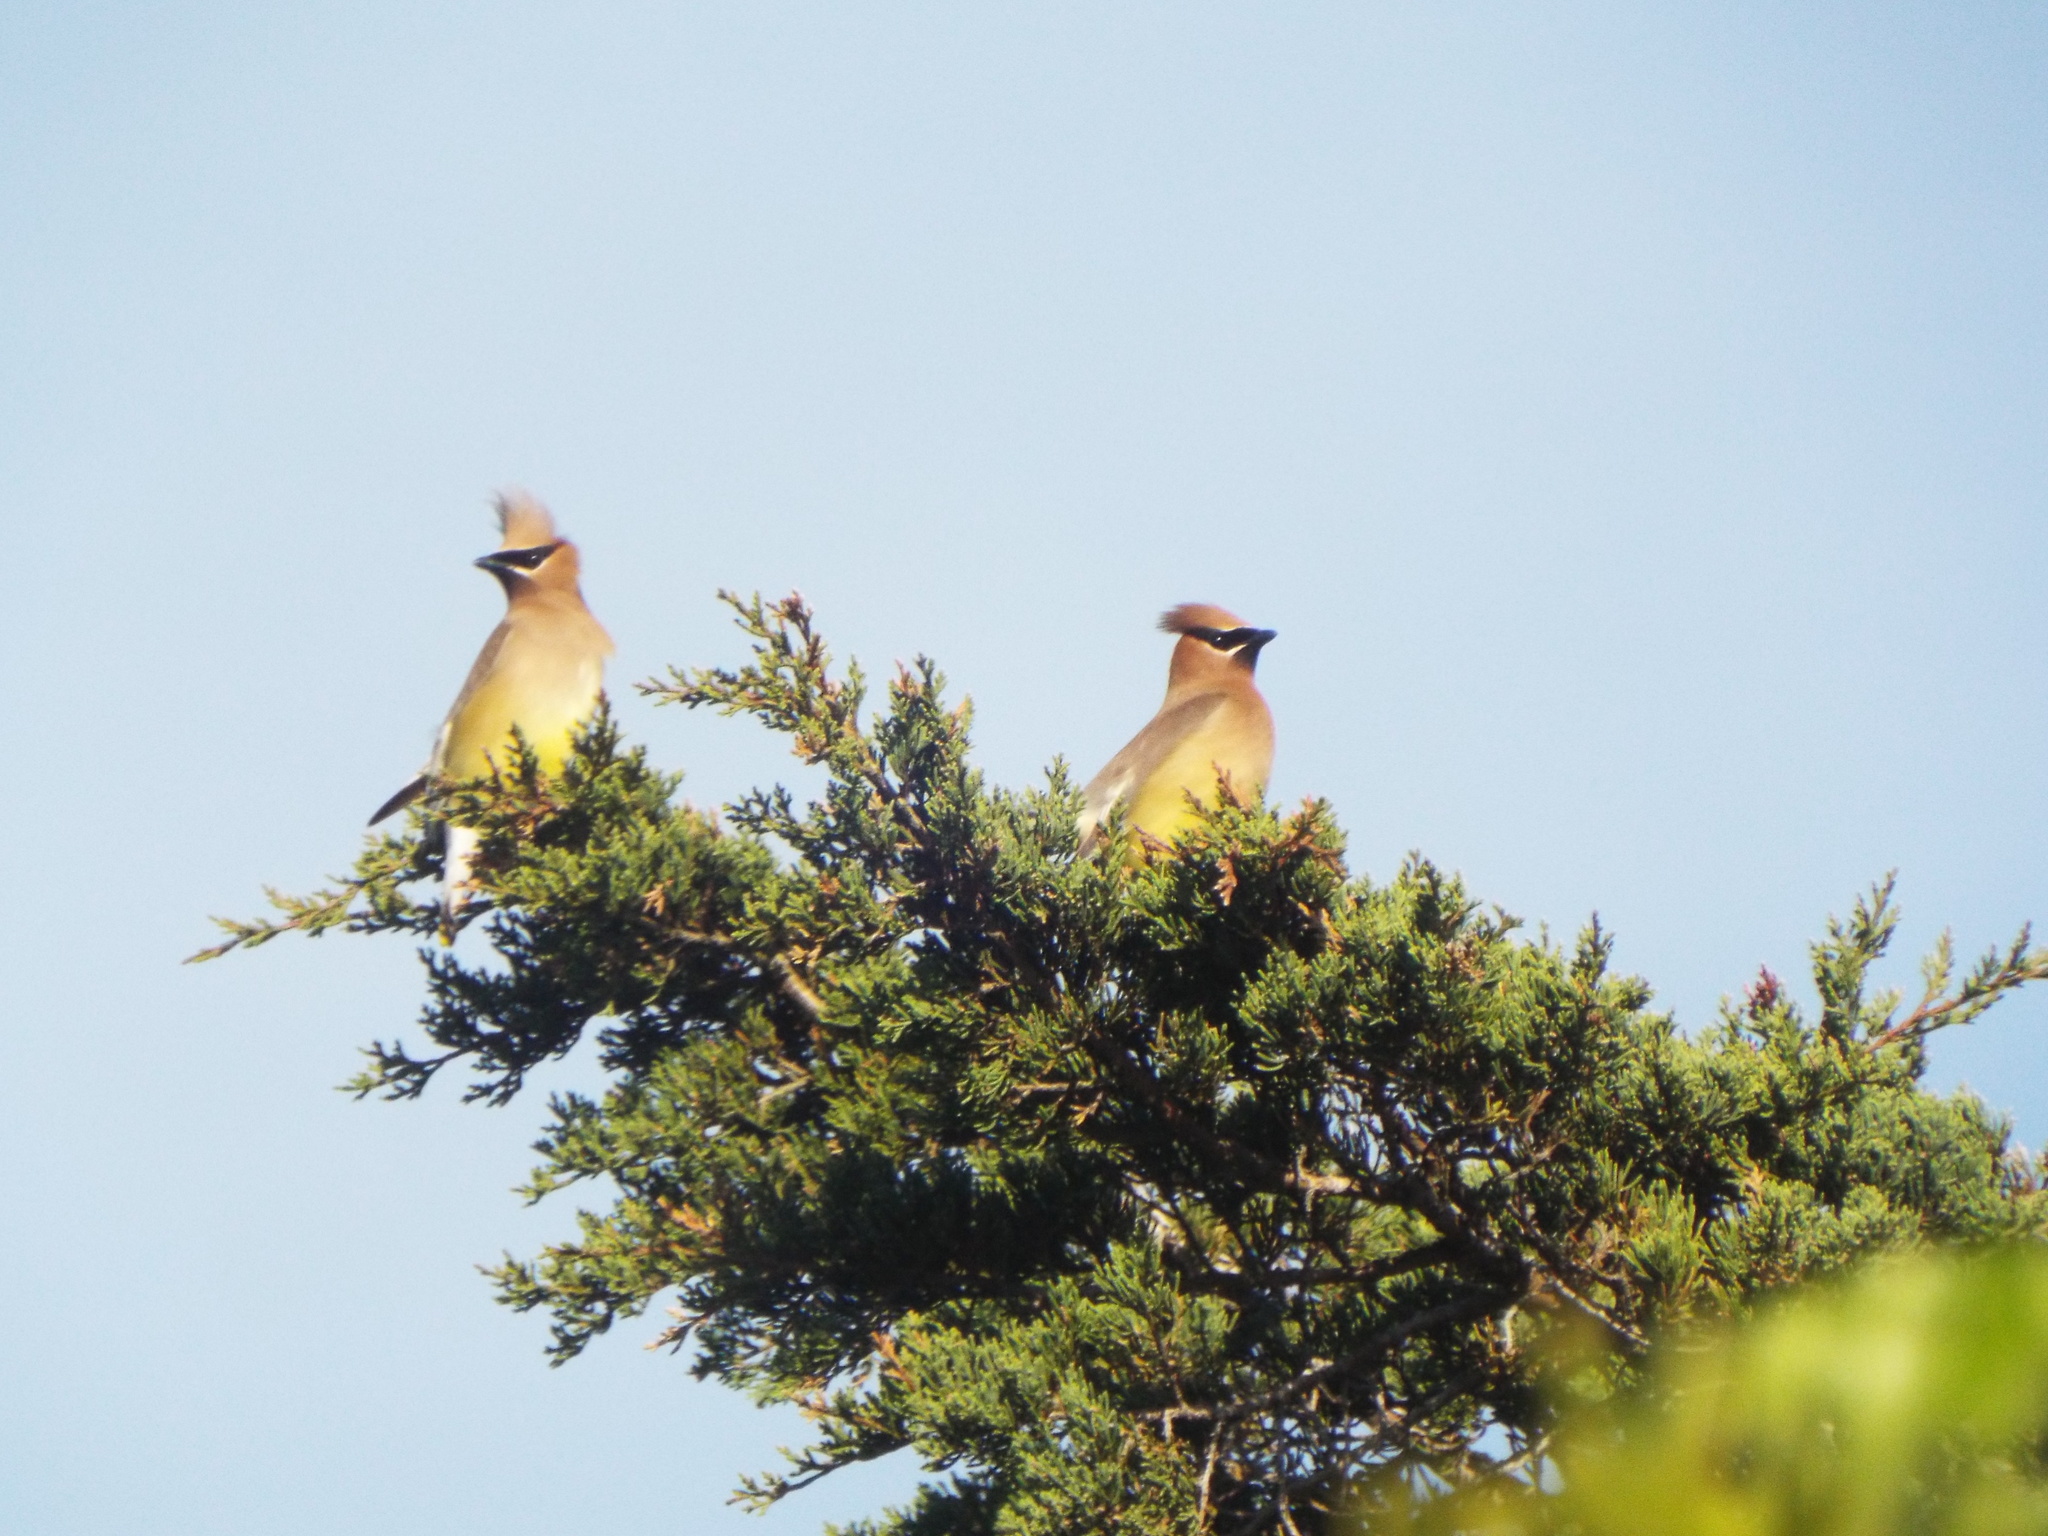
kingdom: Animalia
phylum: Chordata
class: Aves
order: Passeriformes
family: Bombycillidae
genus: Bombycilla
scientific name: Bombycilla cedrorum
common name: Cedar waxwing
